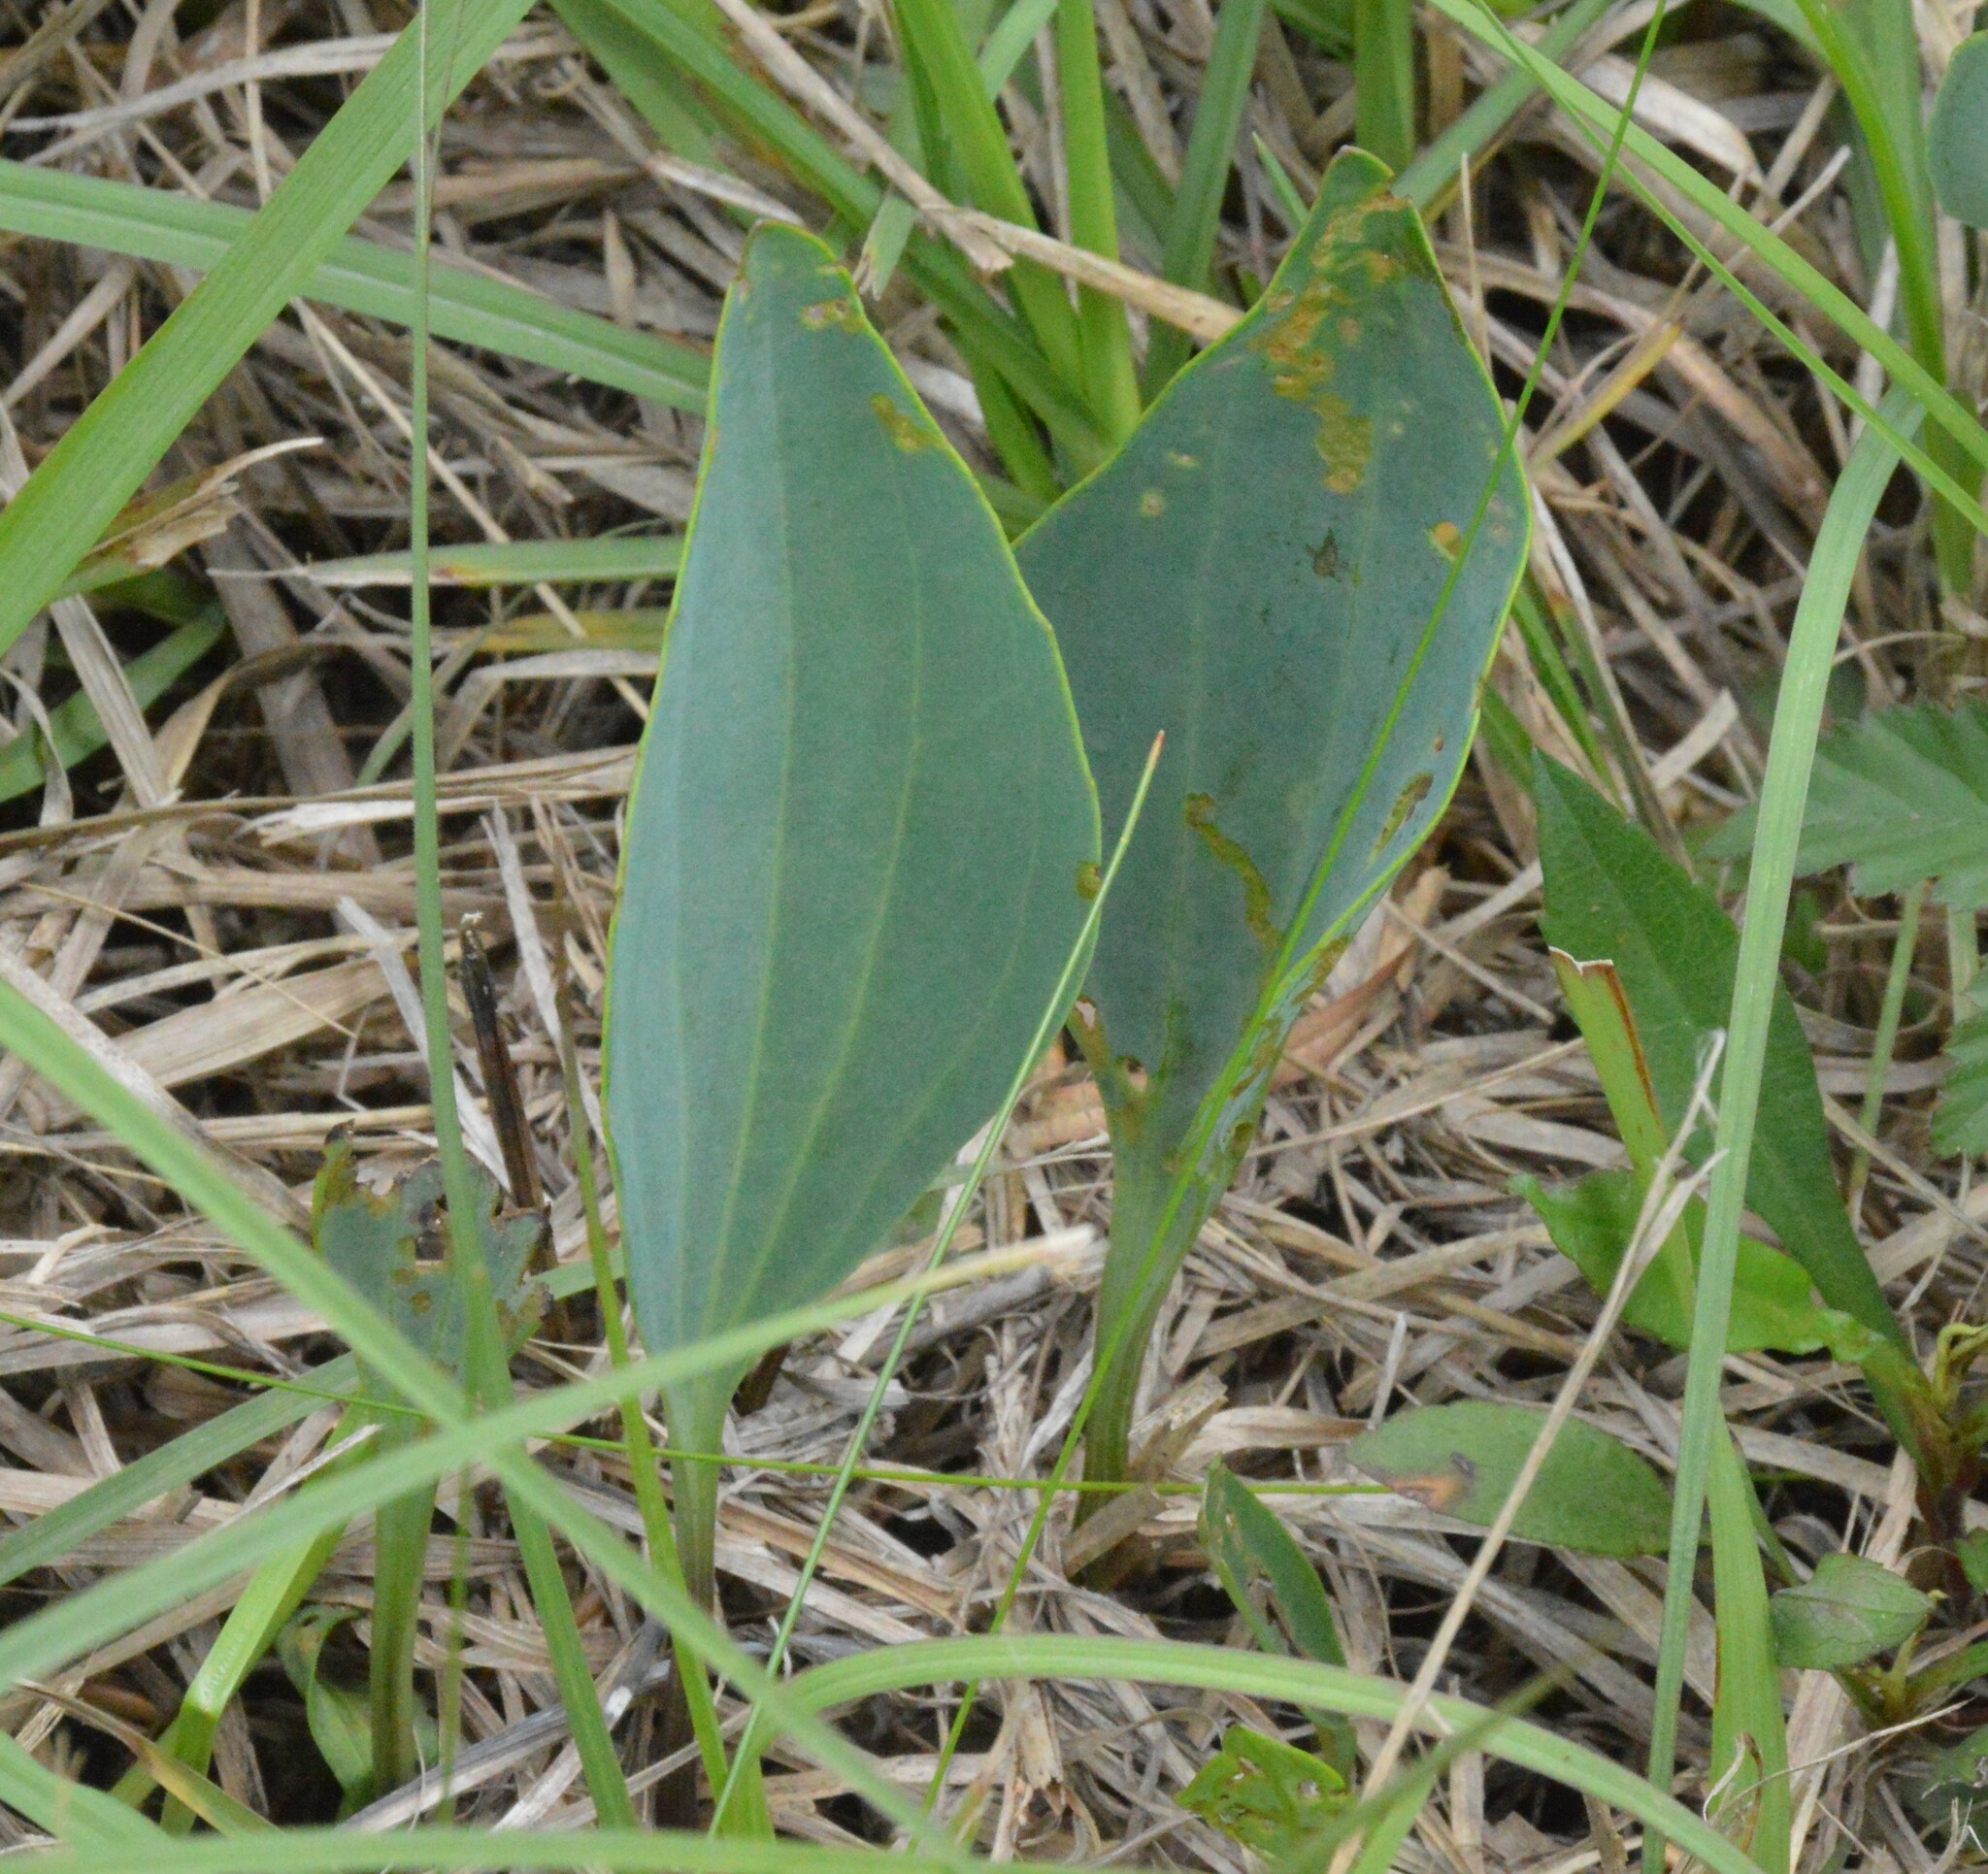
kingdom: Plantae
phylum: Tracheophyta
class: Magnoliopsida
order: Asterales
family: Asteraceae
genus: Arnoglossum
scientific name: Arnoglossum ovatum
